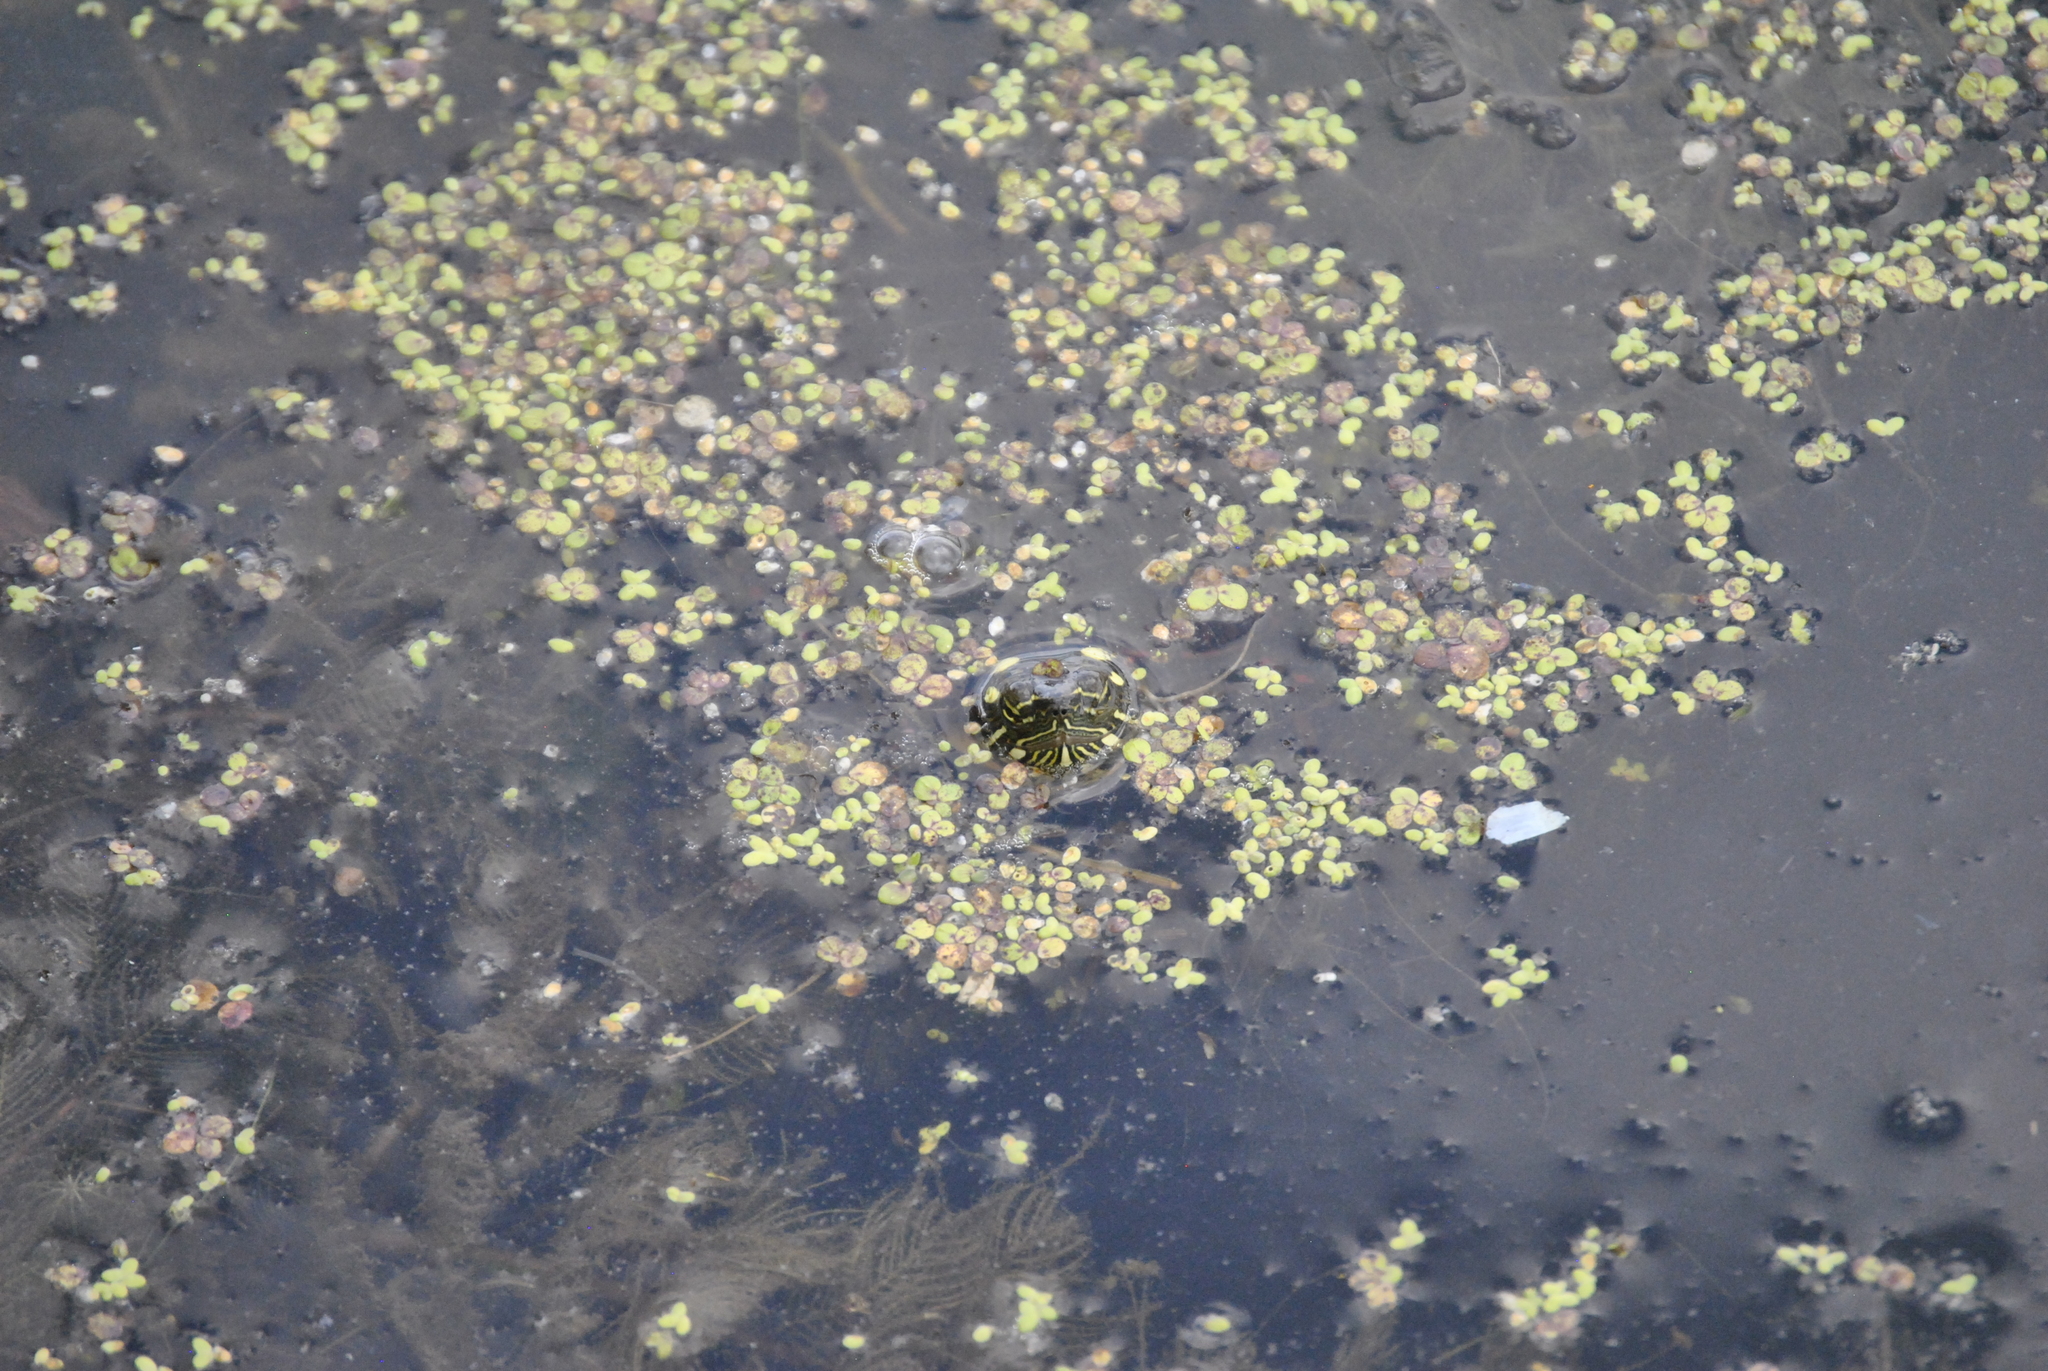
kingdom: Animalia
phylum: Chordata
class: Testudines
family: Emydidae
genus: Chrysemys
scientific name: Chrysemys picta
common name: Painted turtle
